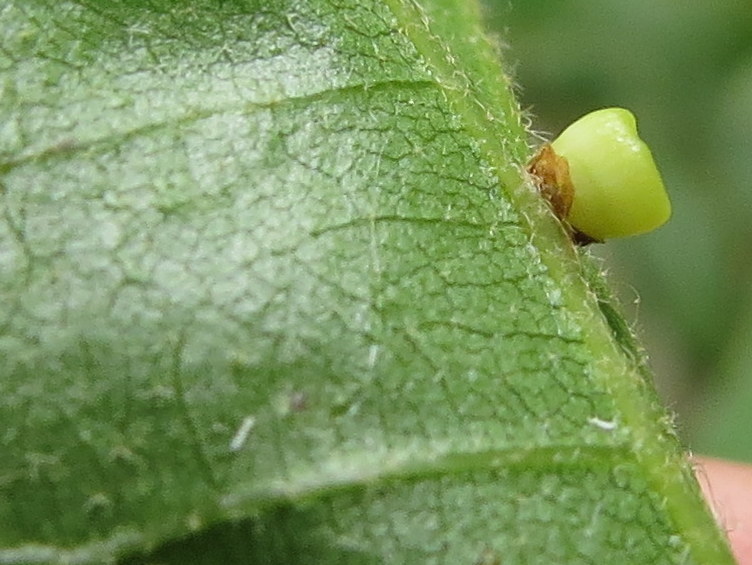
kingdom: Animalia
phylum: Arthropoda
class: Insecta
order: Hymenoptera
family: Cynipidae
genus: Kokkocynips
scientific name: Kokkocynips rileyi
